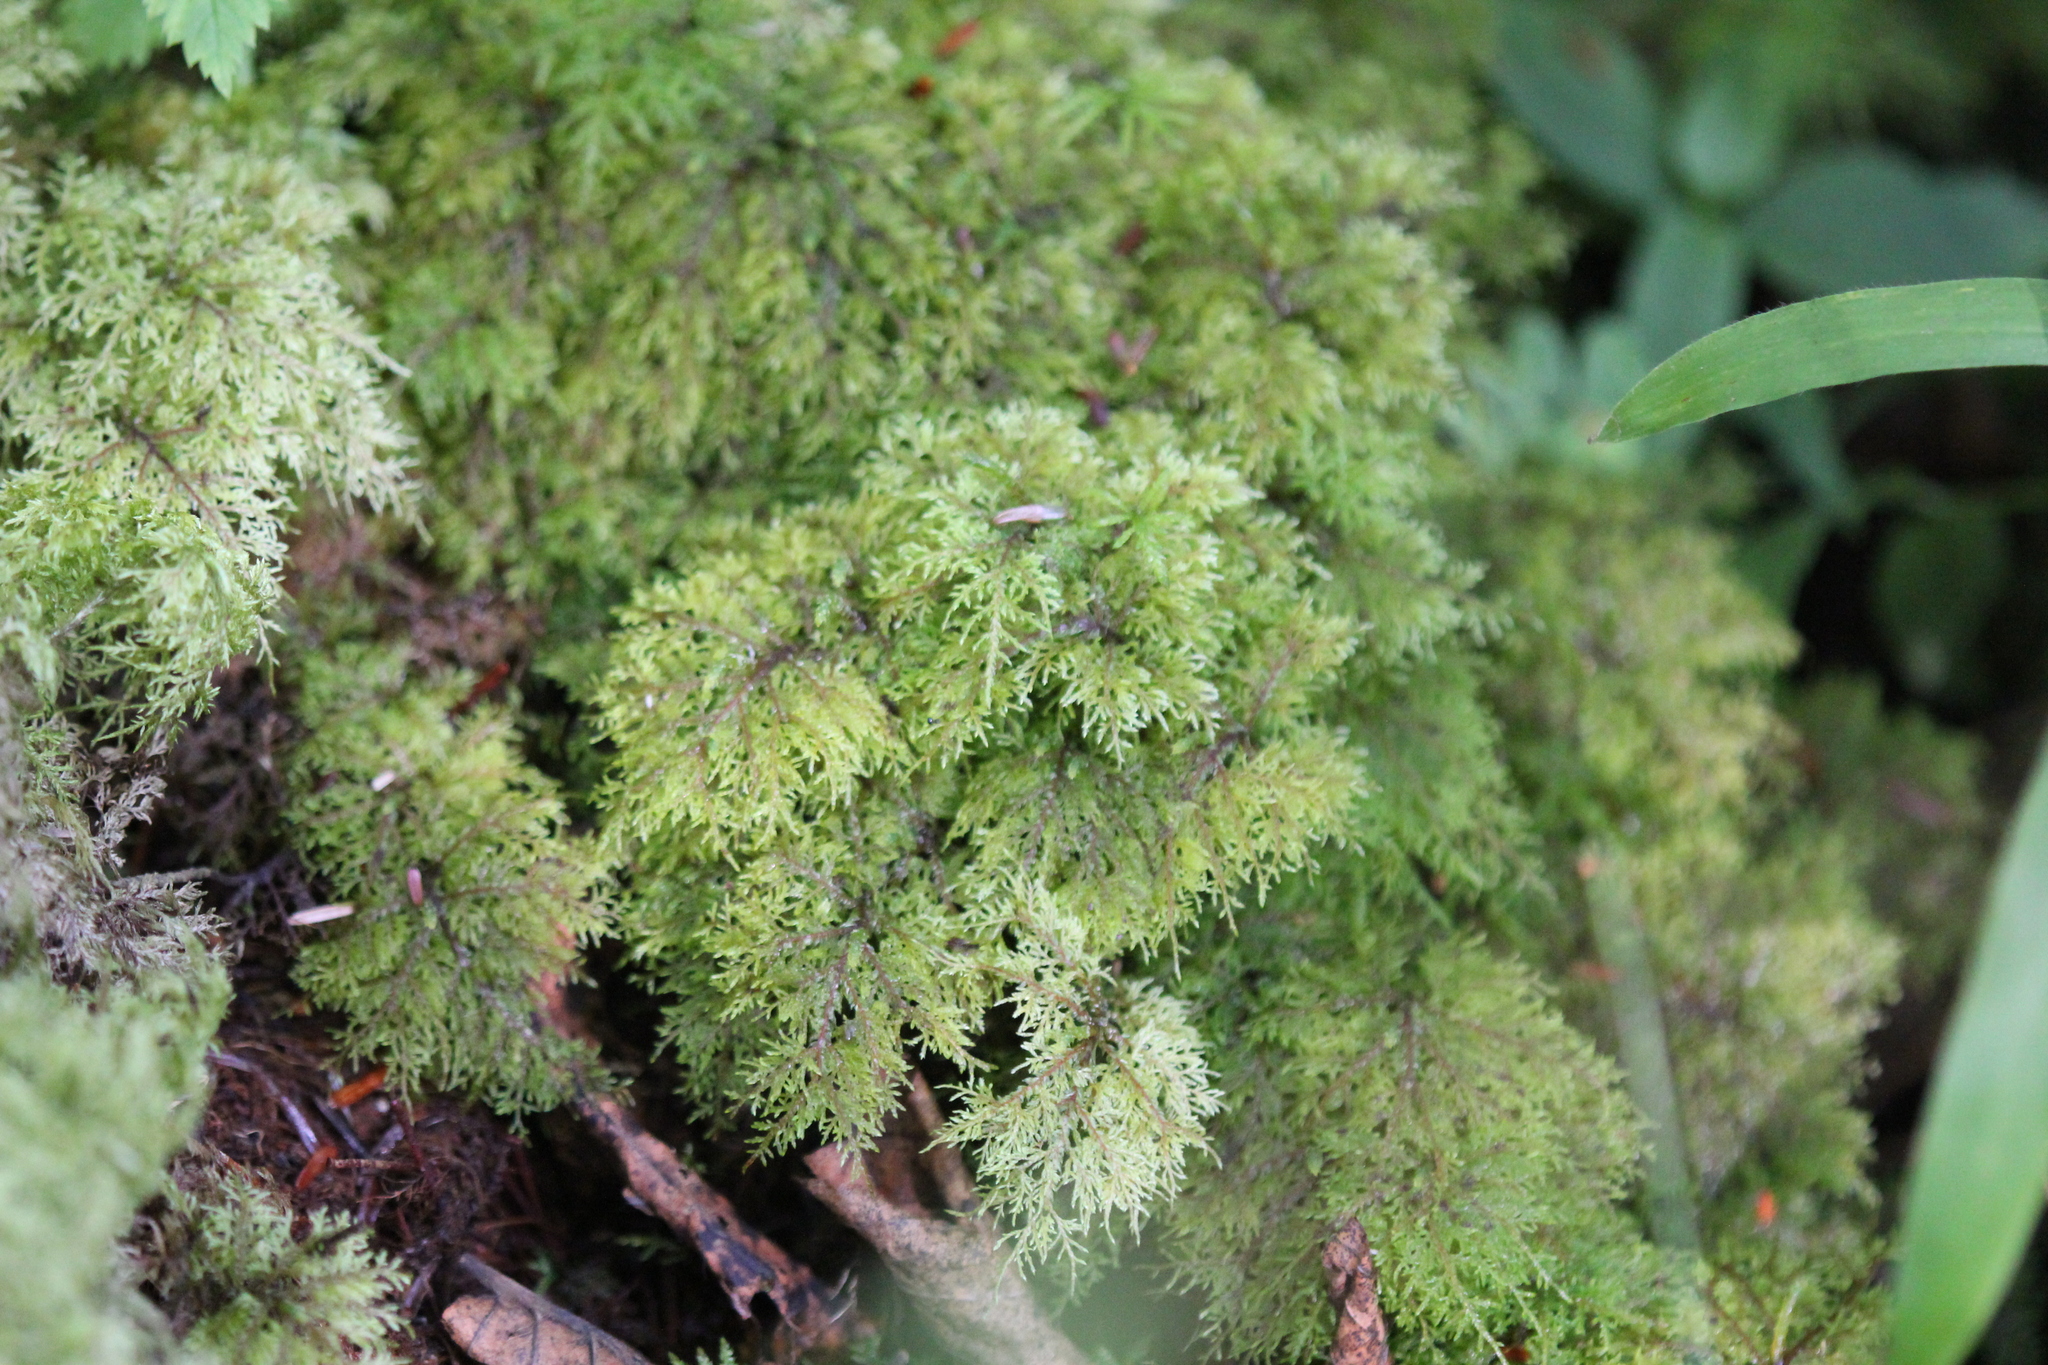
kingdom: Plantae
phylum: Bryophyta
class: Bryopsida
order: Hypnales
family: Hylocomiaceae
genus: Hylocomium
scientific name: Hylocomium splendens
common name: Stairstep moss
